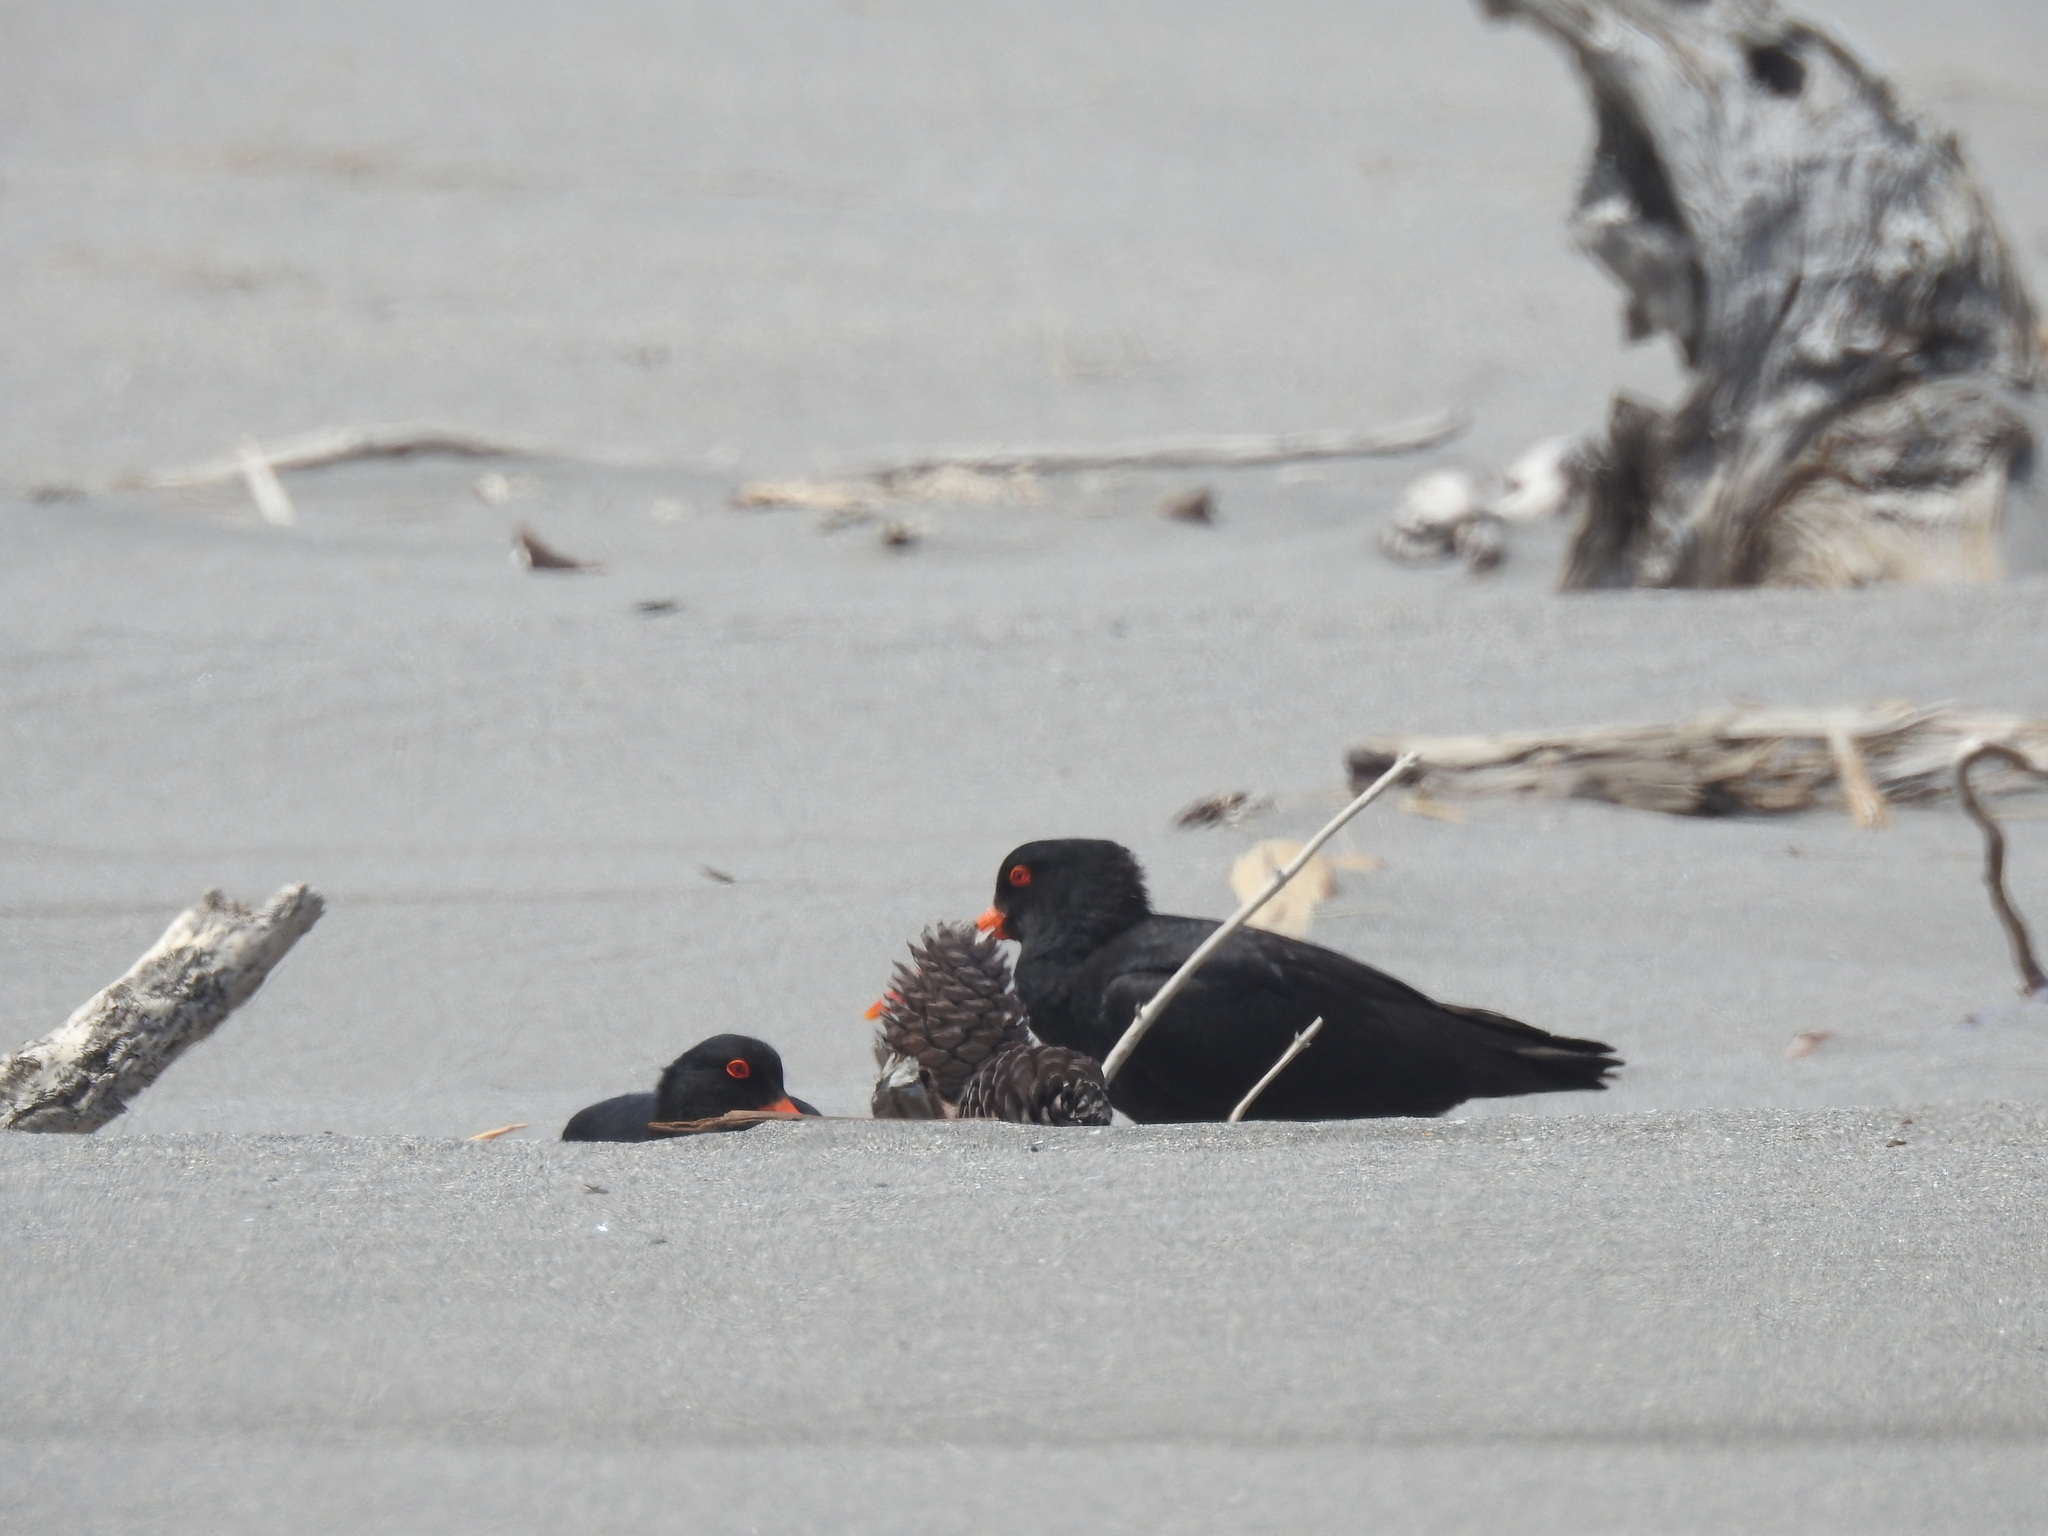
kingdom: Animalia
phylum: Chordata
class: Aves
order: Charadriiformes
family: Haematopodidae
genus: Haematopus
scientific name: Haematopus unicolor
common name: Variable oystercatcher
